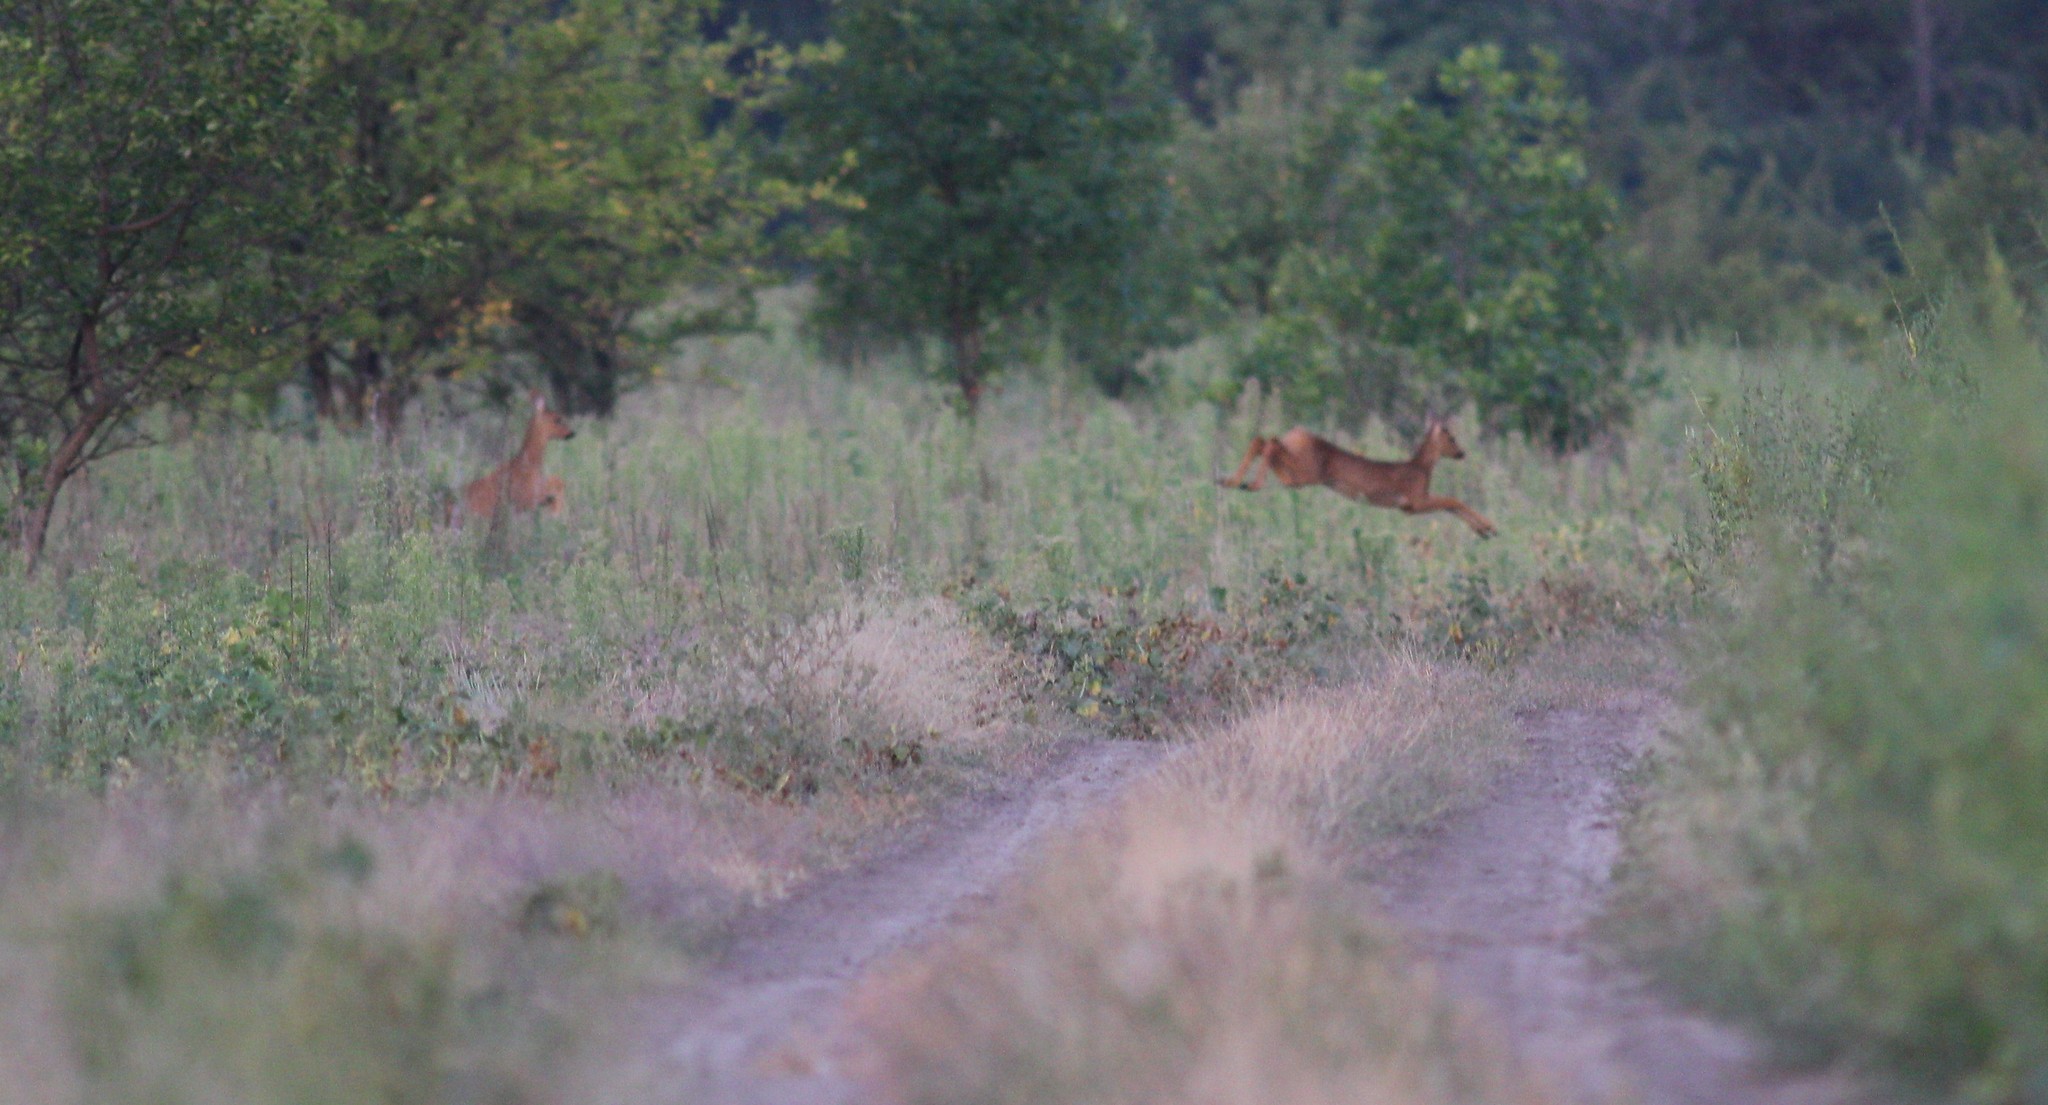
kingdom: Animalia
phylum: Chordata
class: Mammalia
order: Artiodactyla
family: Cervidae
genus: Capreolus
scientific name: Capreolus pygargus
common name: Siberian roe
